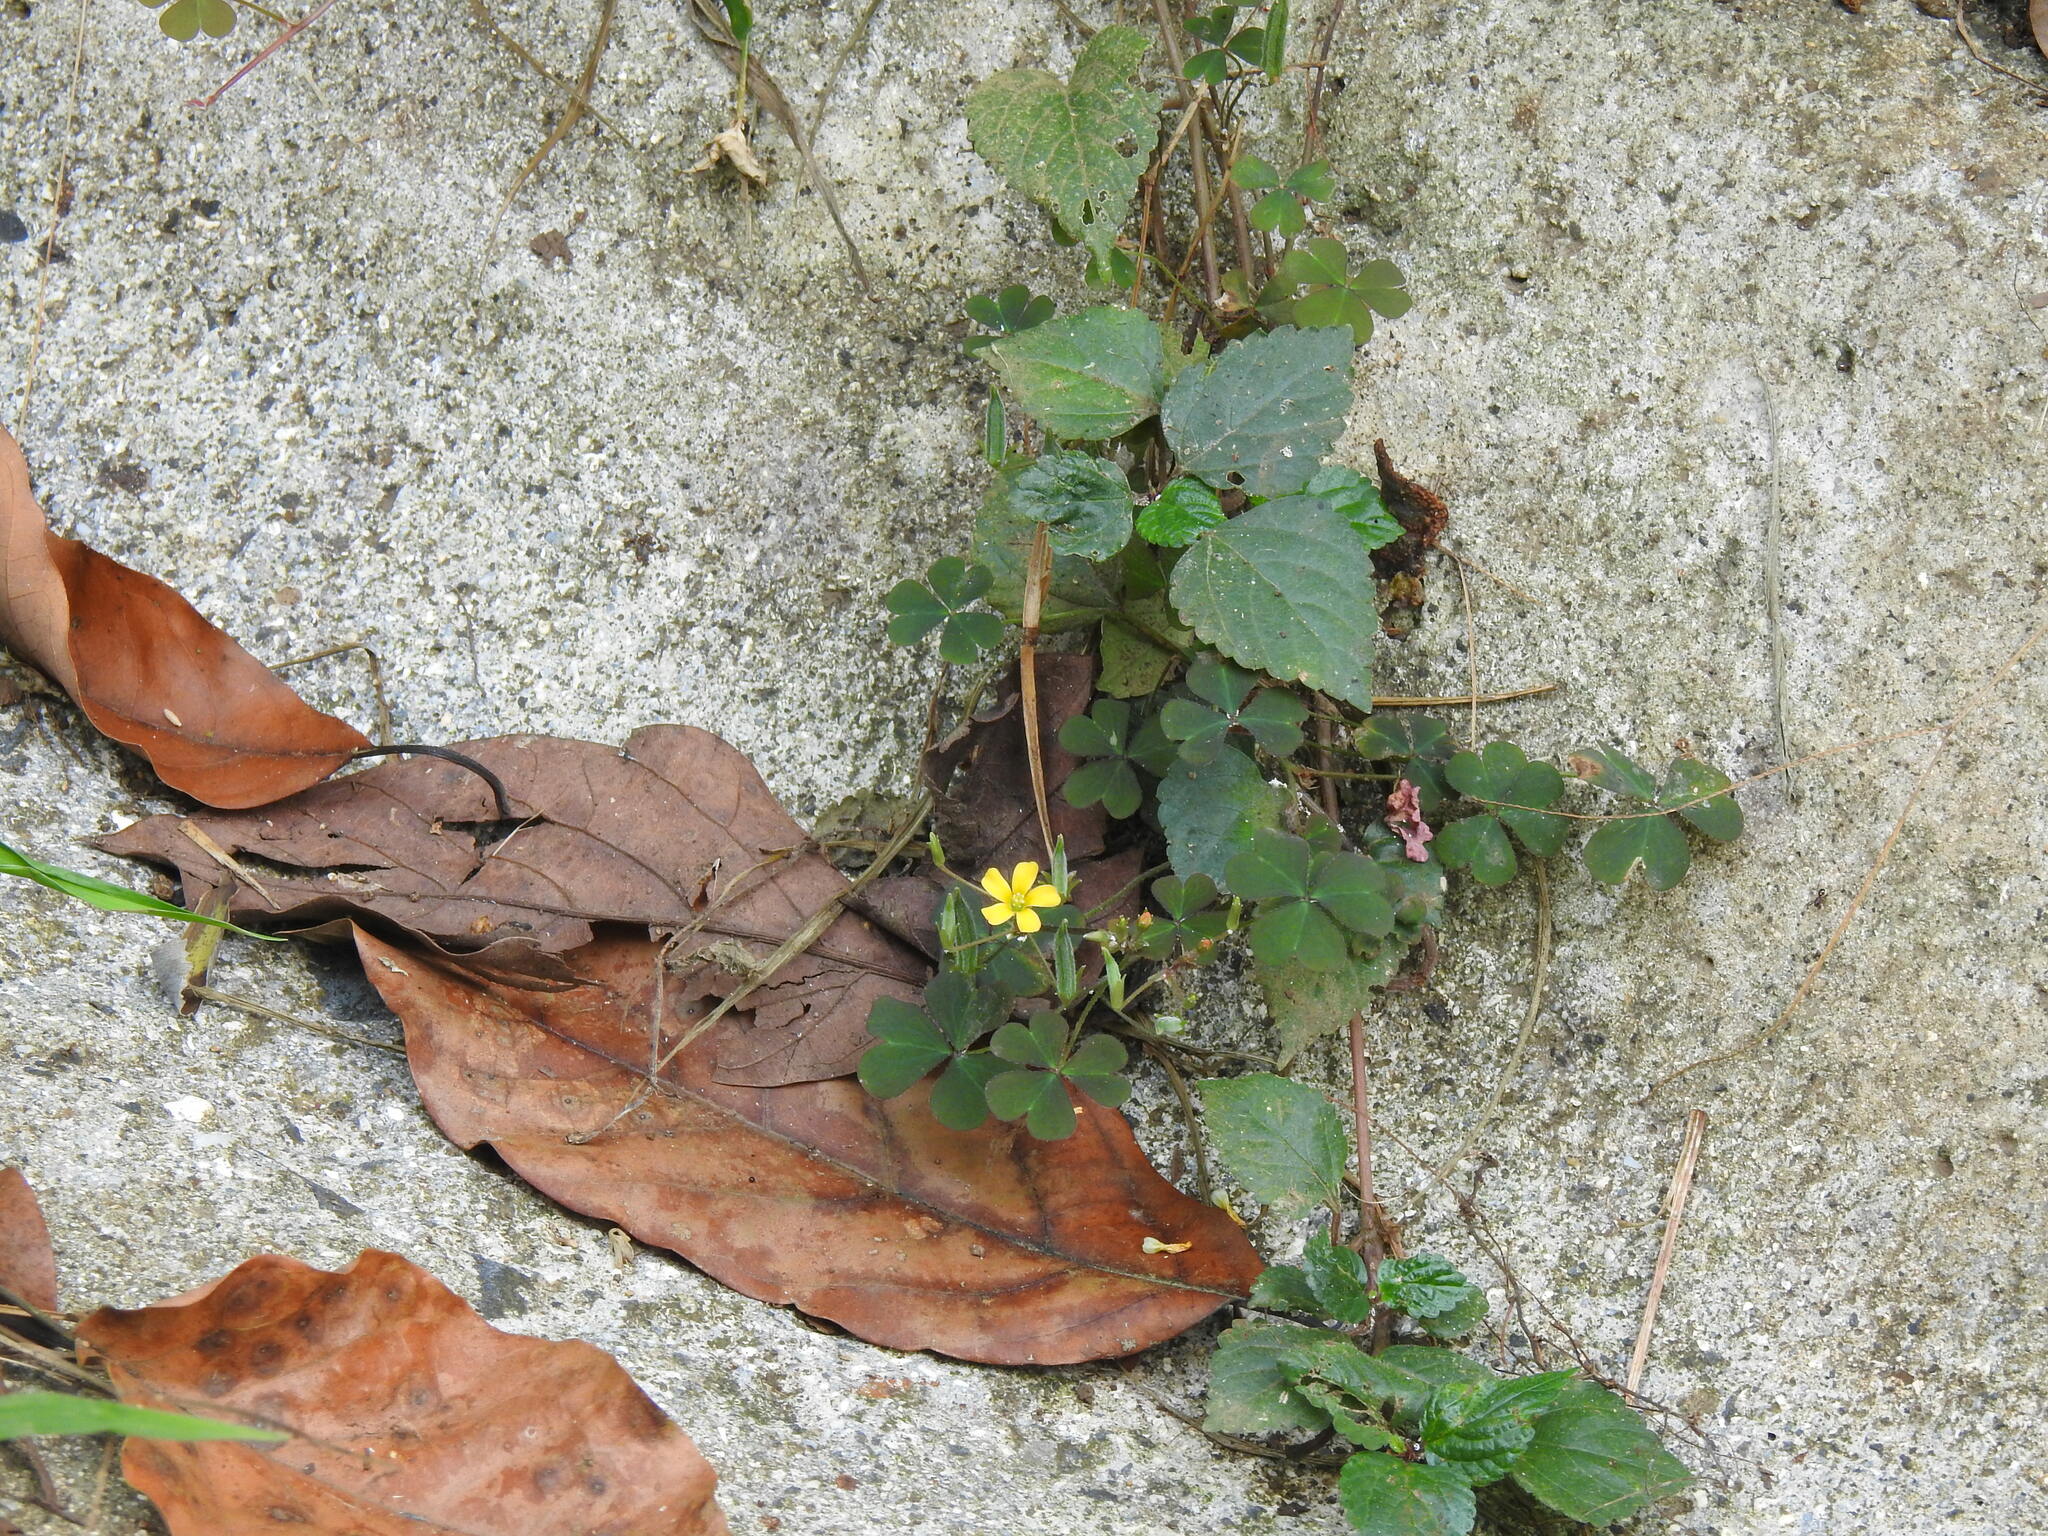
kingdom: Plantae
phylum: Tracheophyta
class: Magnoliopsida
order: Oxalidales
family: Oxalidaceae
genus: Oxalis
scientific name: Oxalis corniculata
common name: Procumbent yellow-sorrel
